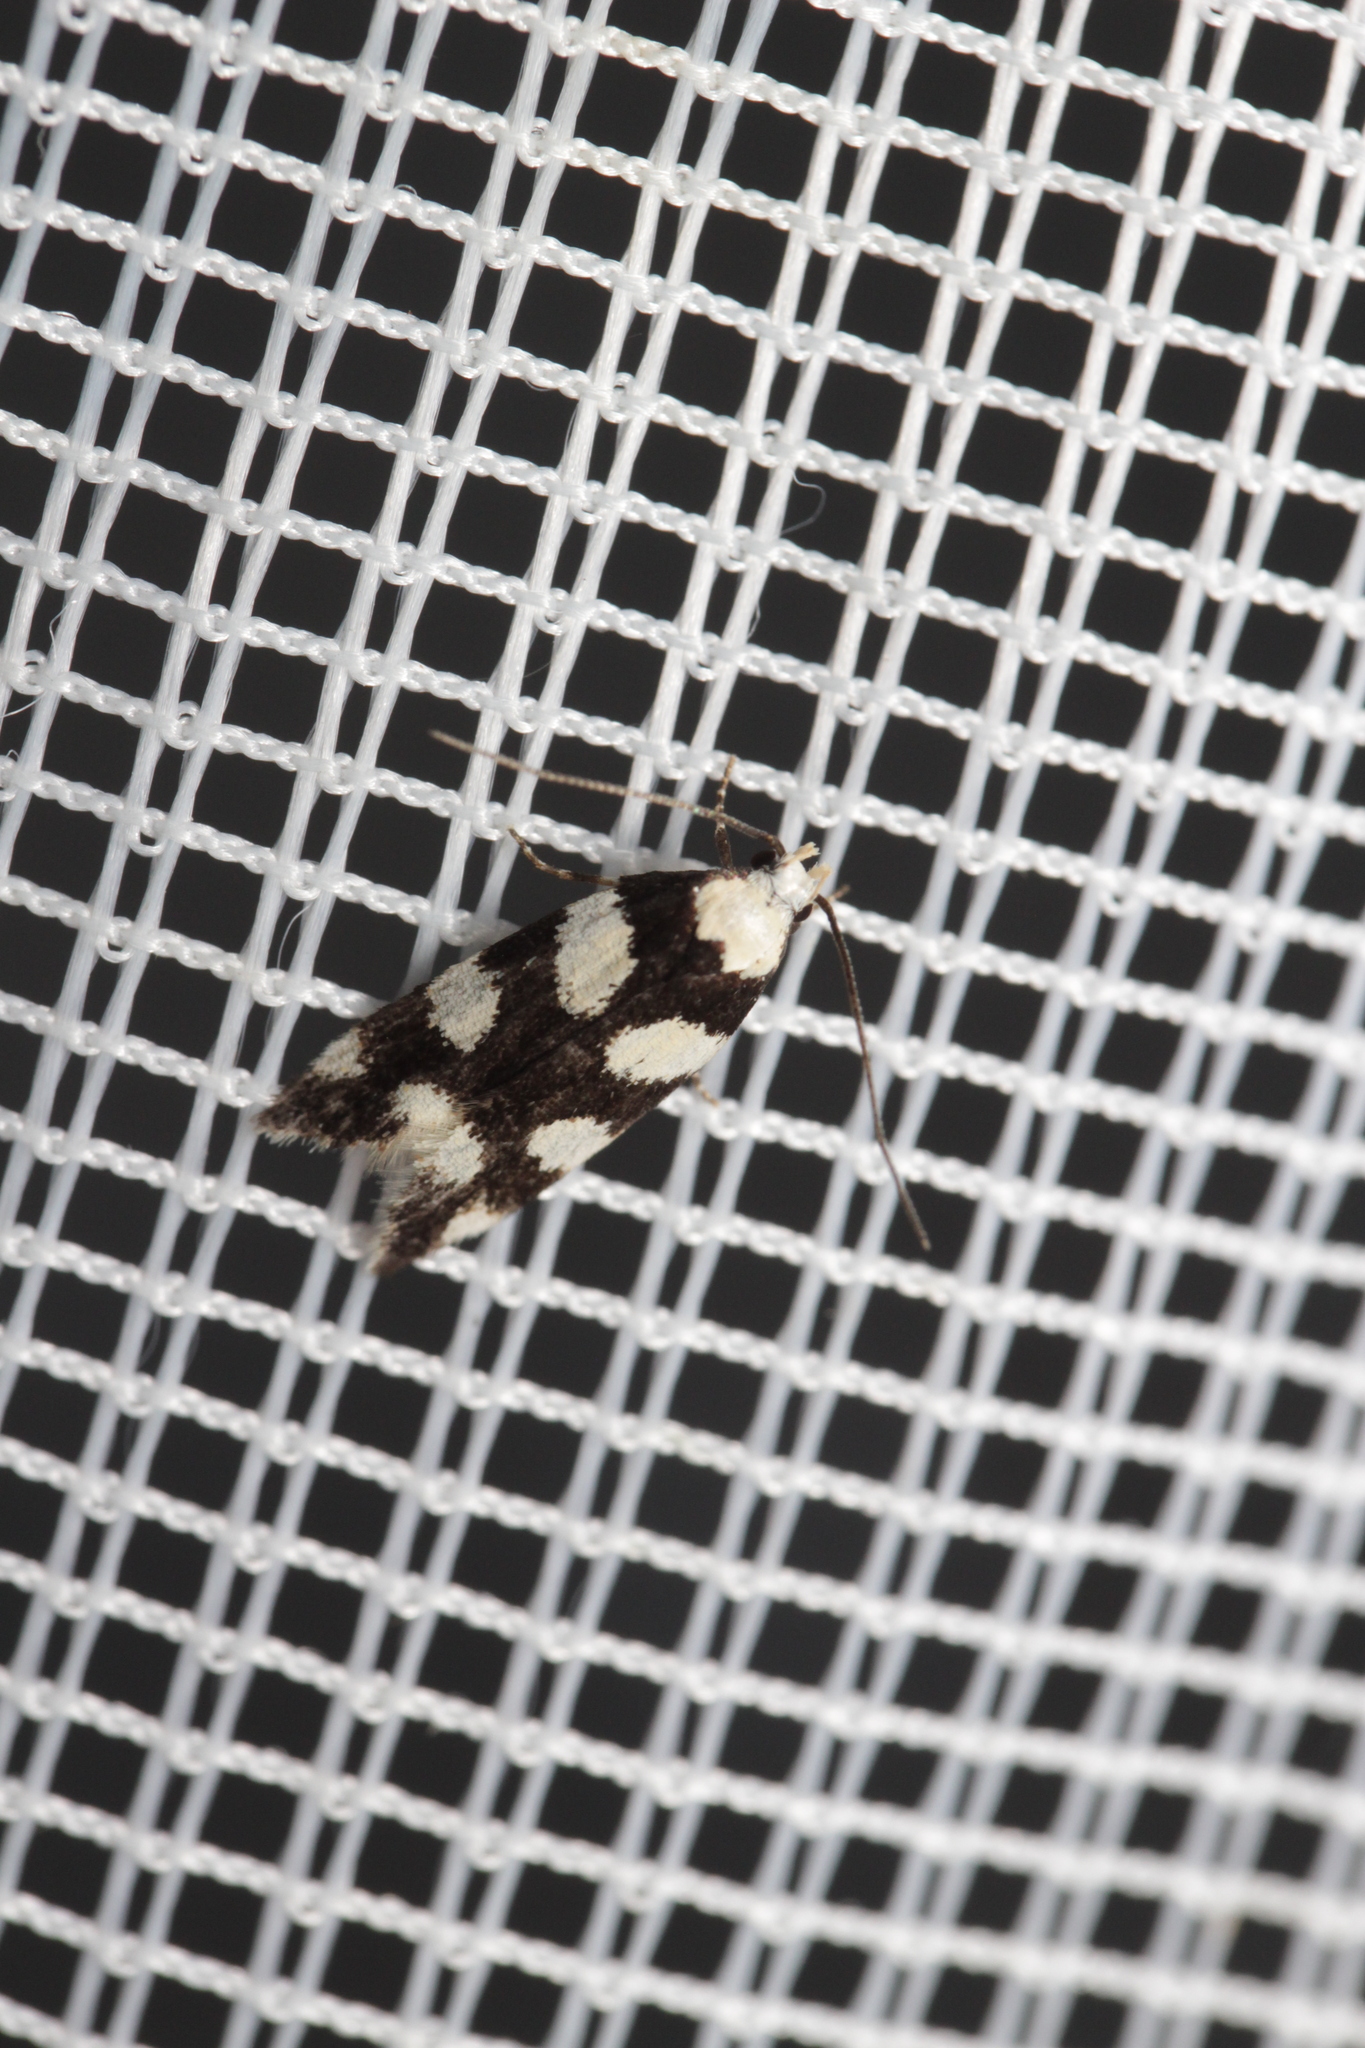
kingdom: Animalia
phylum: Arthropoda
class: Insecta
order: Lepidoptera
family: Gelechiidae
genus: Pseudotelphusa
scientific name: Pseudotelphusa tessella
